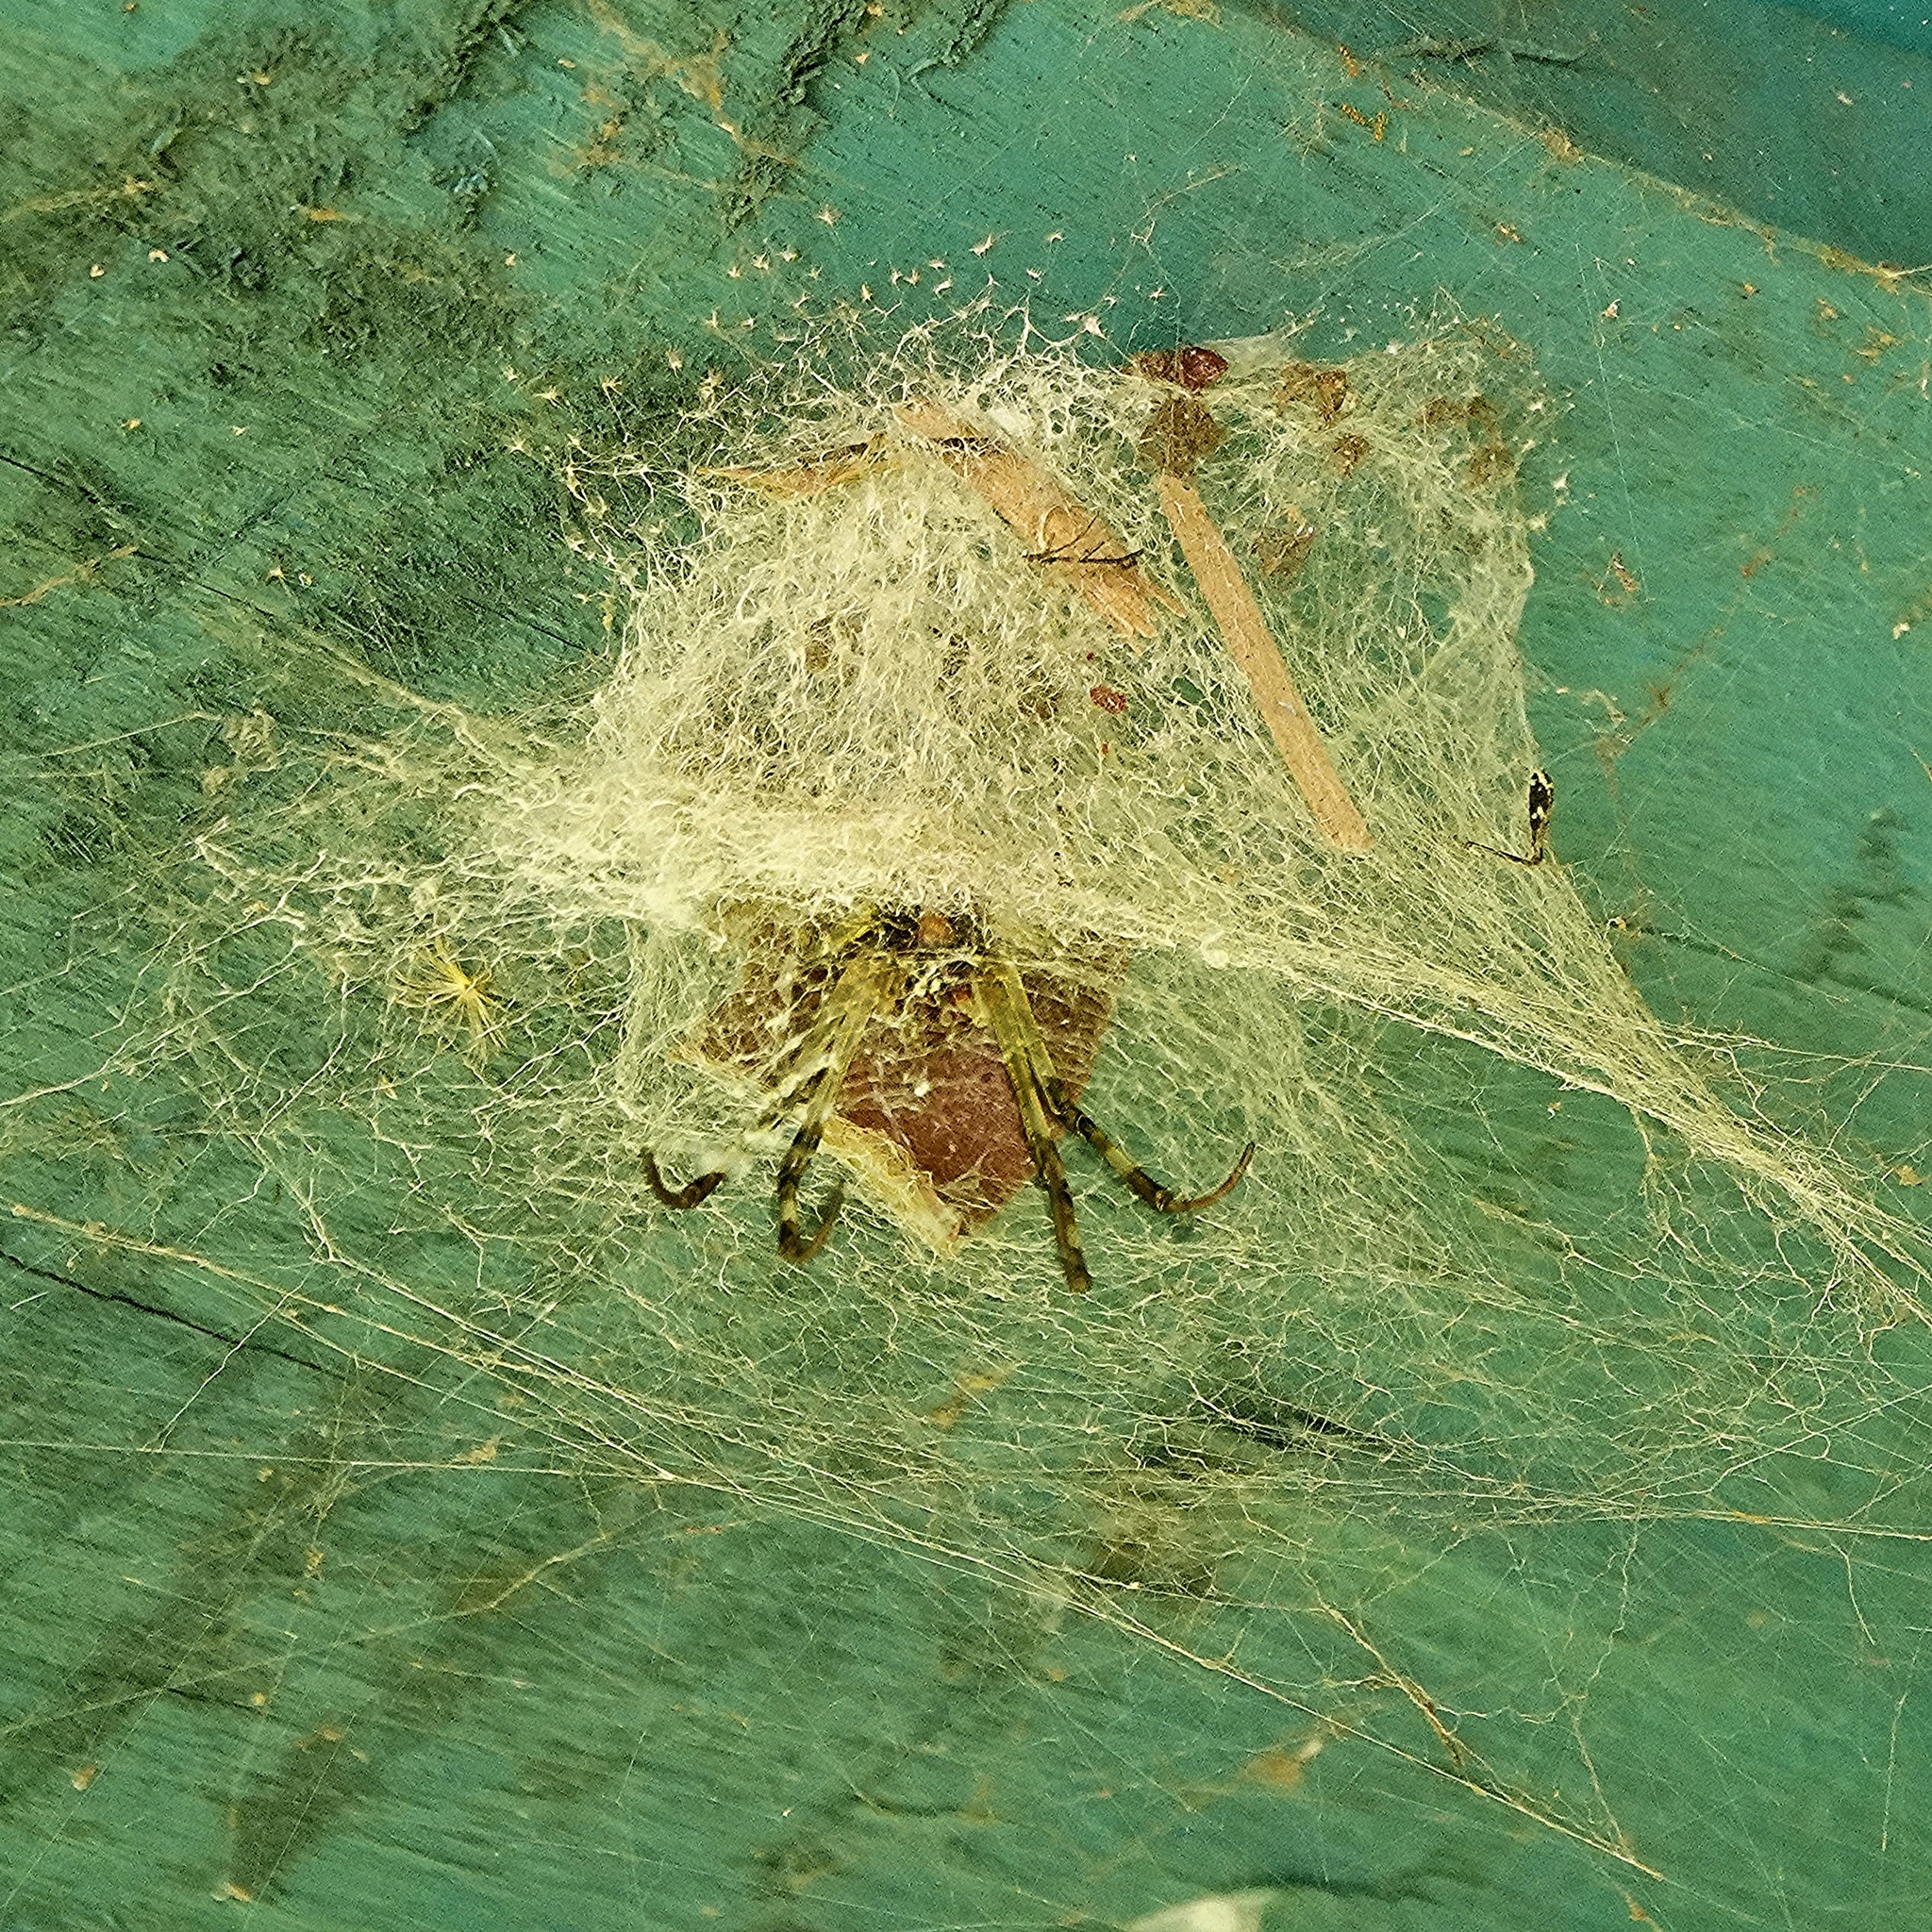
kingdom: Animalia
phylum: Arthropoda
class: Arachnida
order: Araneae
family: Araneidae
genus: Nephilingis
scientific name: Nephilingis livida
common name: Madagascar hermit spider
